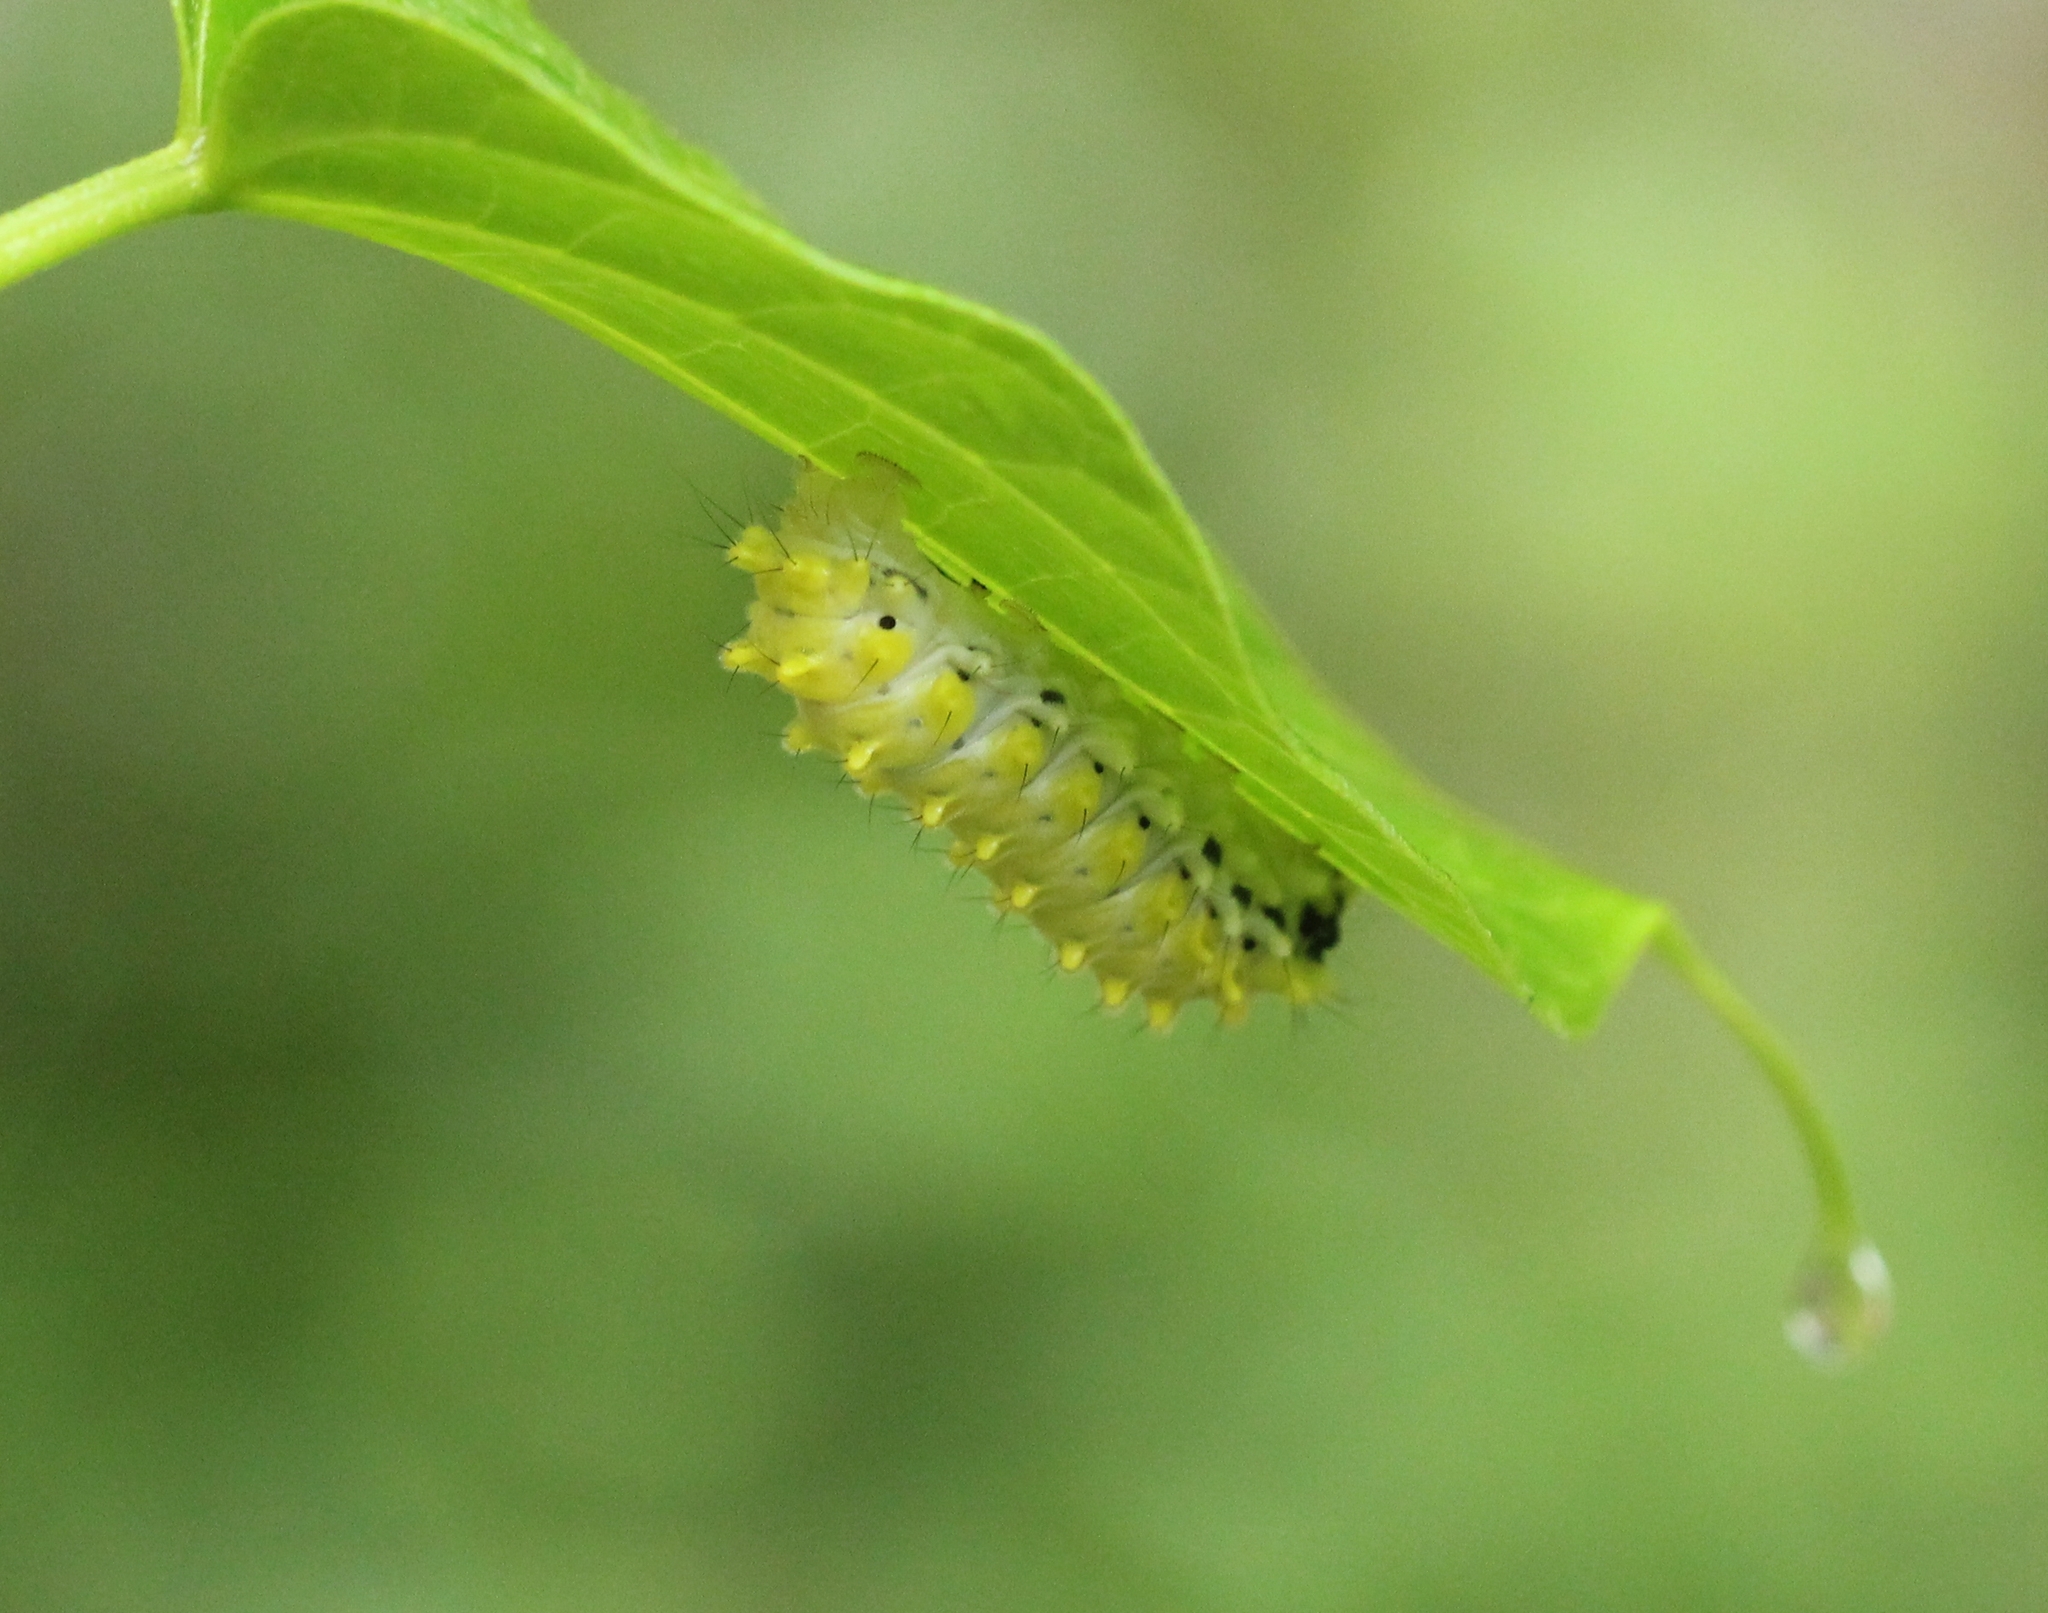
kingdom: Animalia
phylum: Arthropoda
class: Insecta
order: Lepidoptera
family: Zygaenidae
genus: Cyclosia
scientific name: Cyclosia
